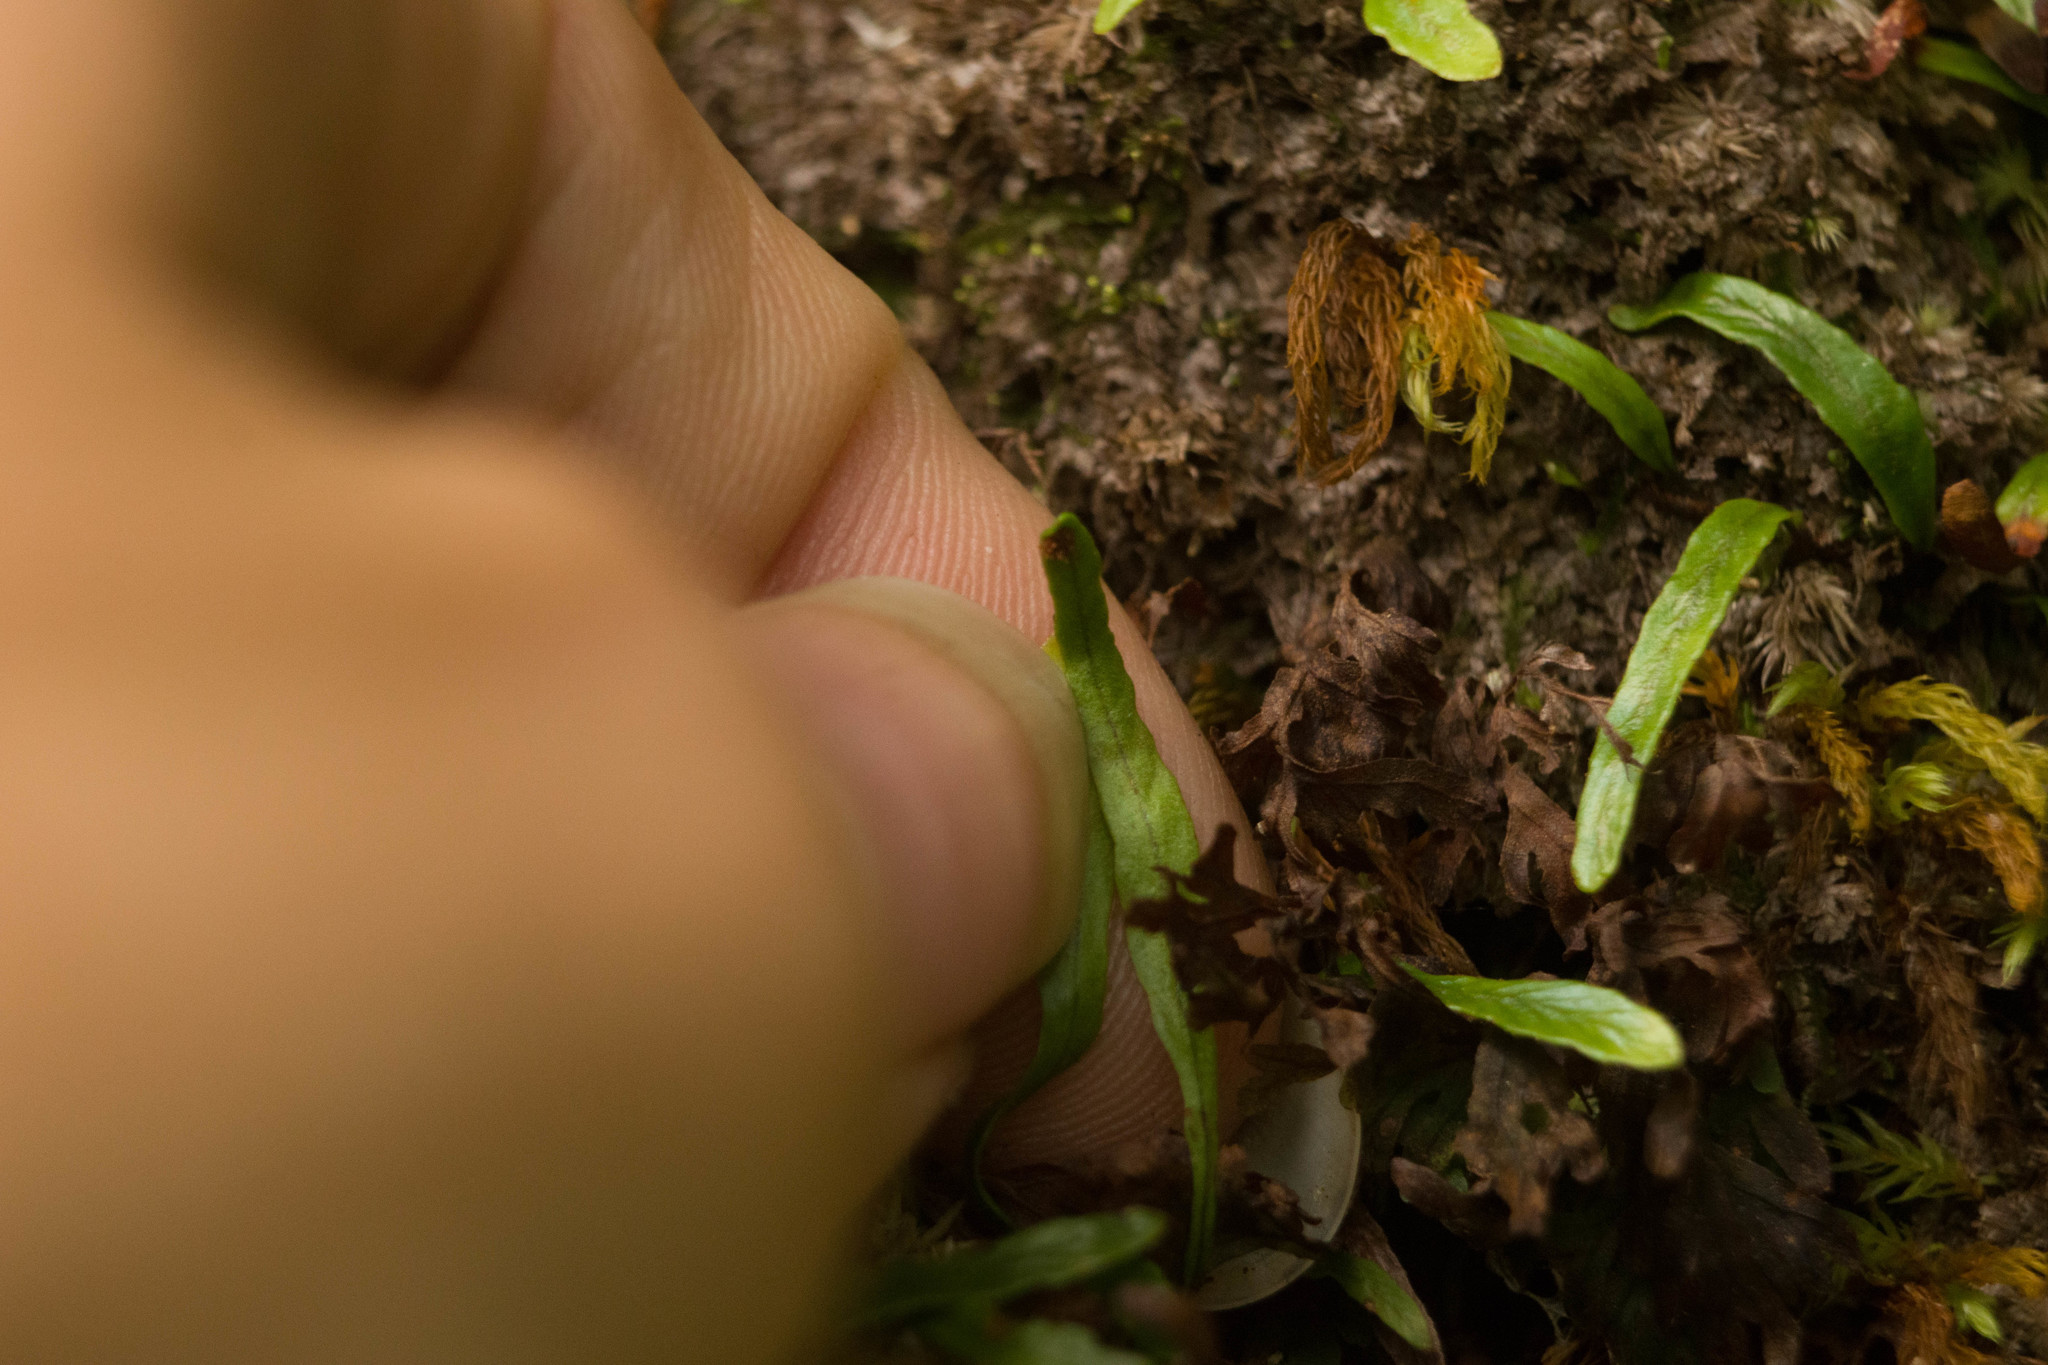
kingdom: Plantae
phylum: Tracheophyta
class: Polypodiopsida
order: Polypodiales
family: Polypodiaceae
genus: Adenophorus
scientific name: Adenophorus tenellus
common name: Kolokolo
